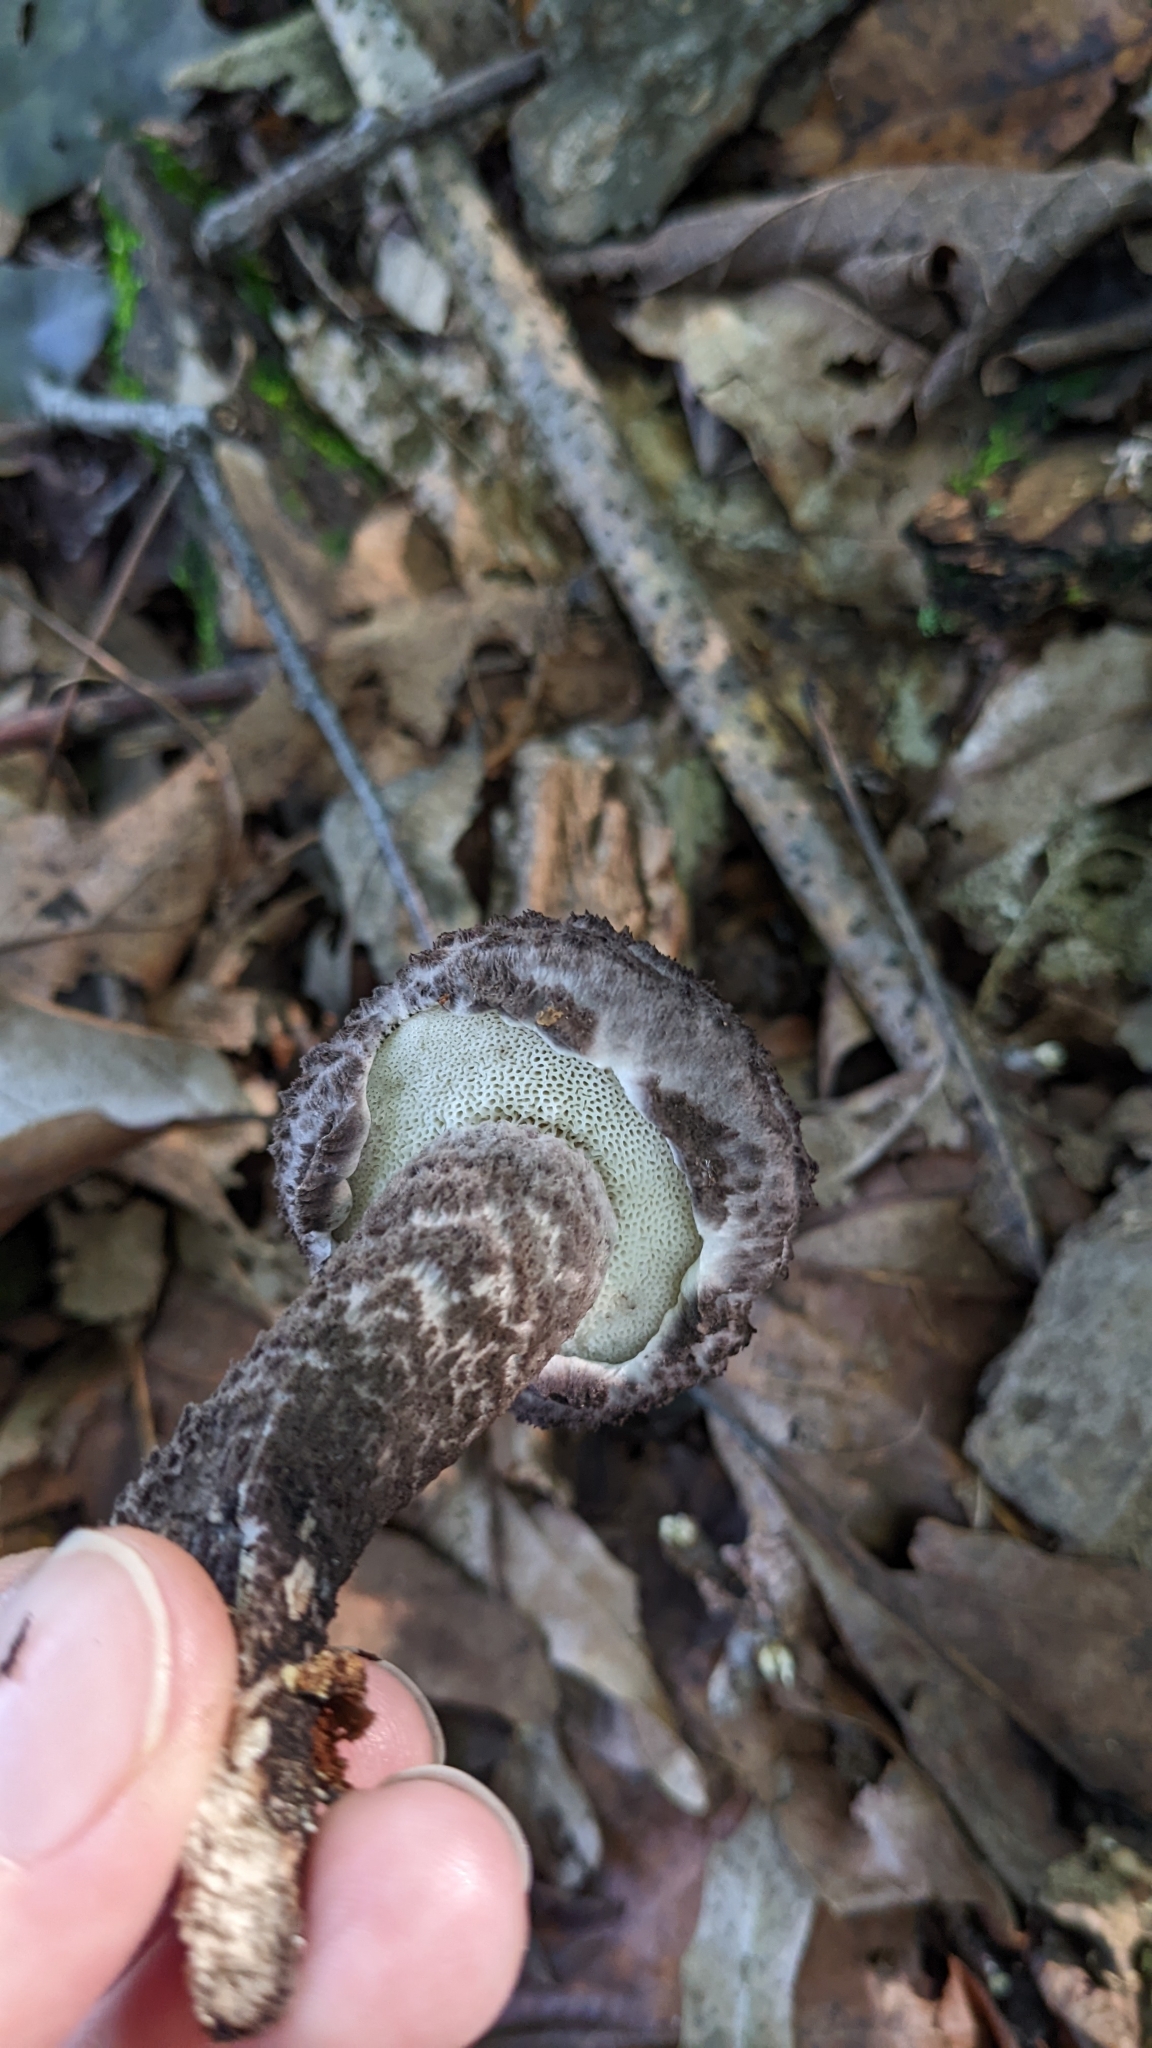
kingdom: Fungi
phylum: Basidiomycota
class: Agaricomycetes
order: Boletales
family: Boletaceae
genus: Strobilomyces
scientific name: Strobilomyces strobilaceus
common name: Old man of the woods
